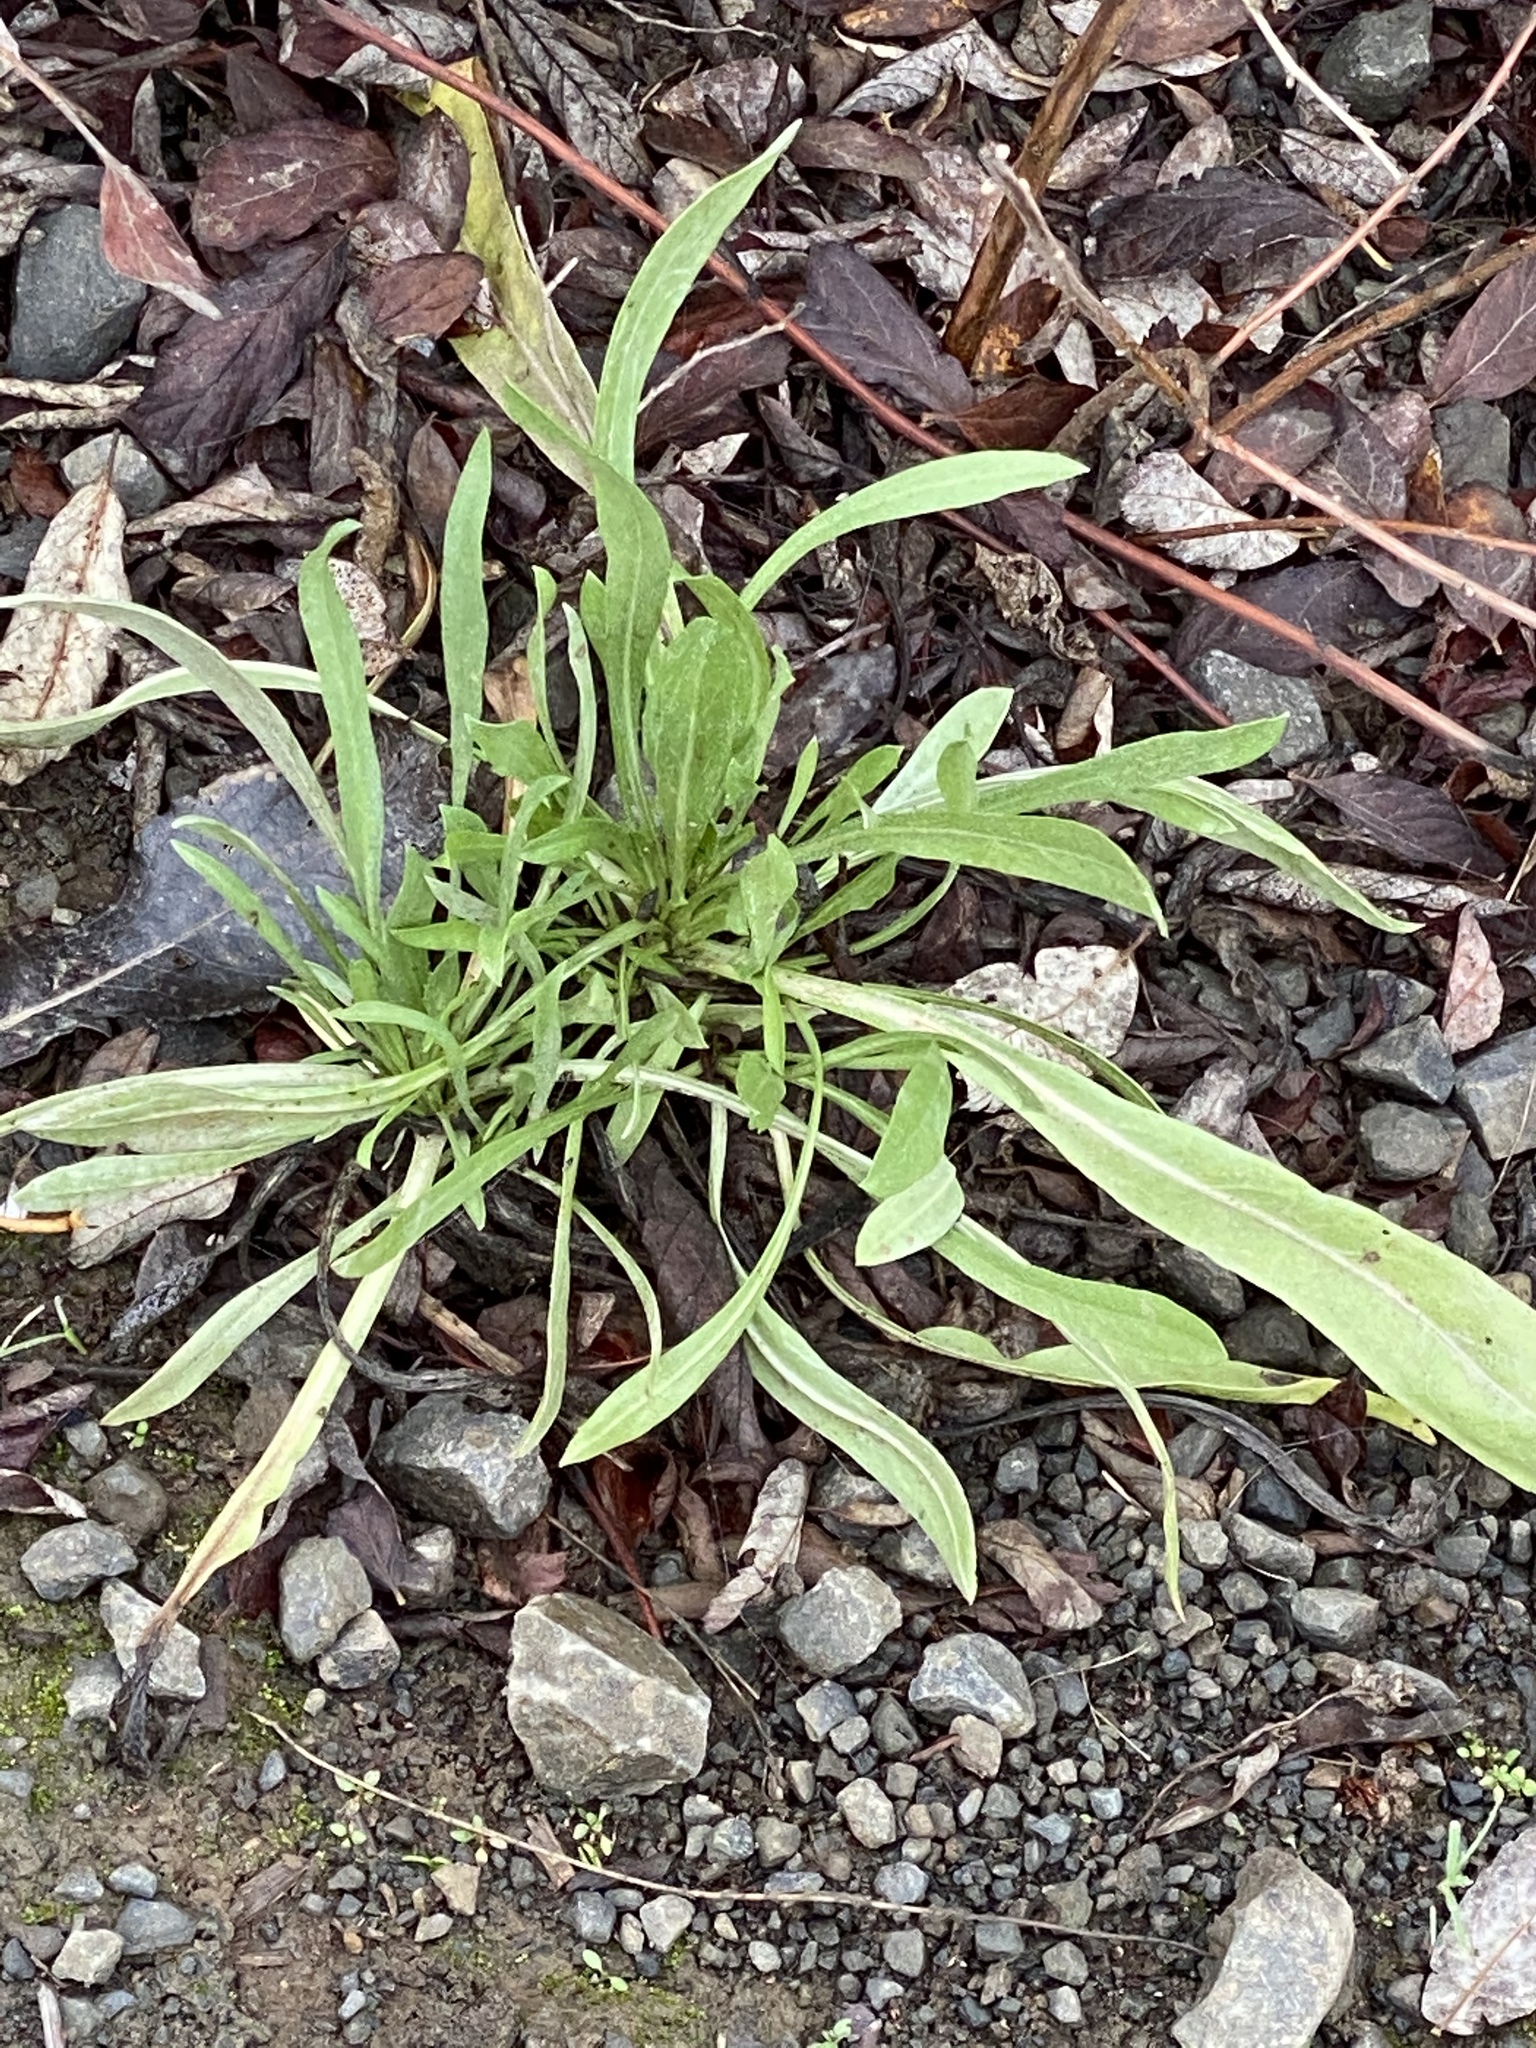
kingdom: Plantae
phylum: Tracheophyta
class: Magnoliopsida
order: Lamiales
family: Plantaginaceae
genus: Plantago
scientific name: Plantago lanceolata
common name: Ribwort plantain
